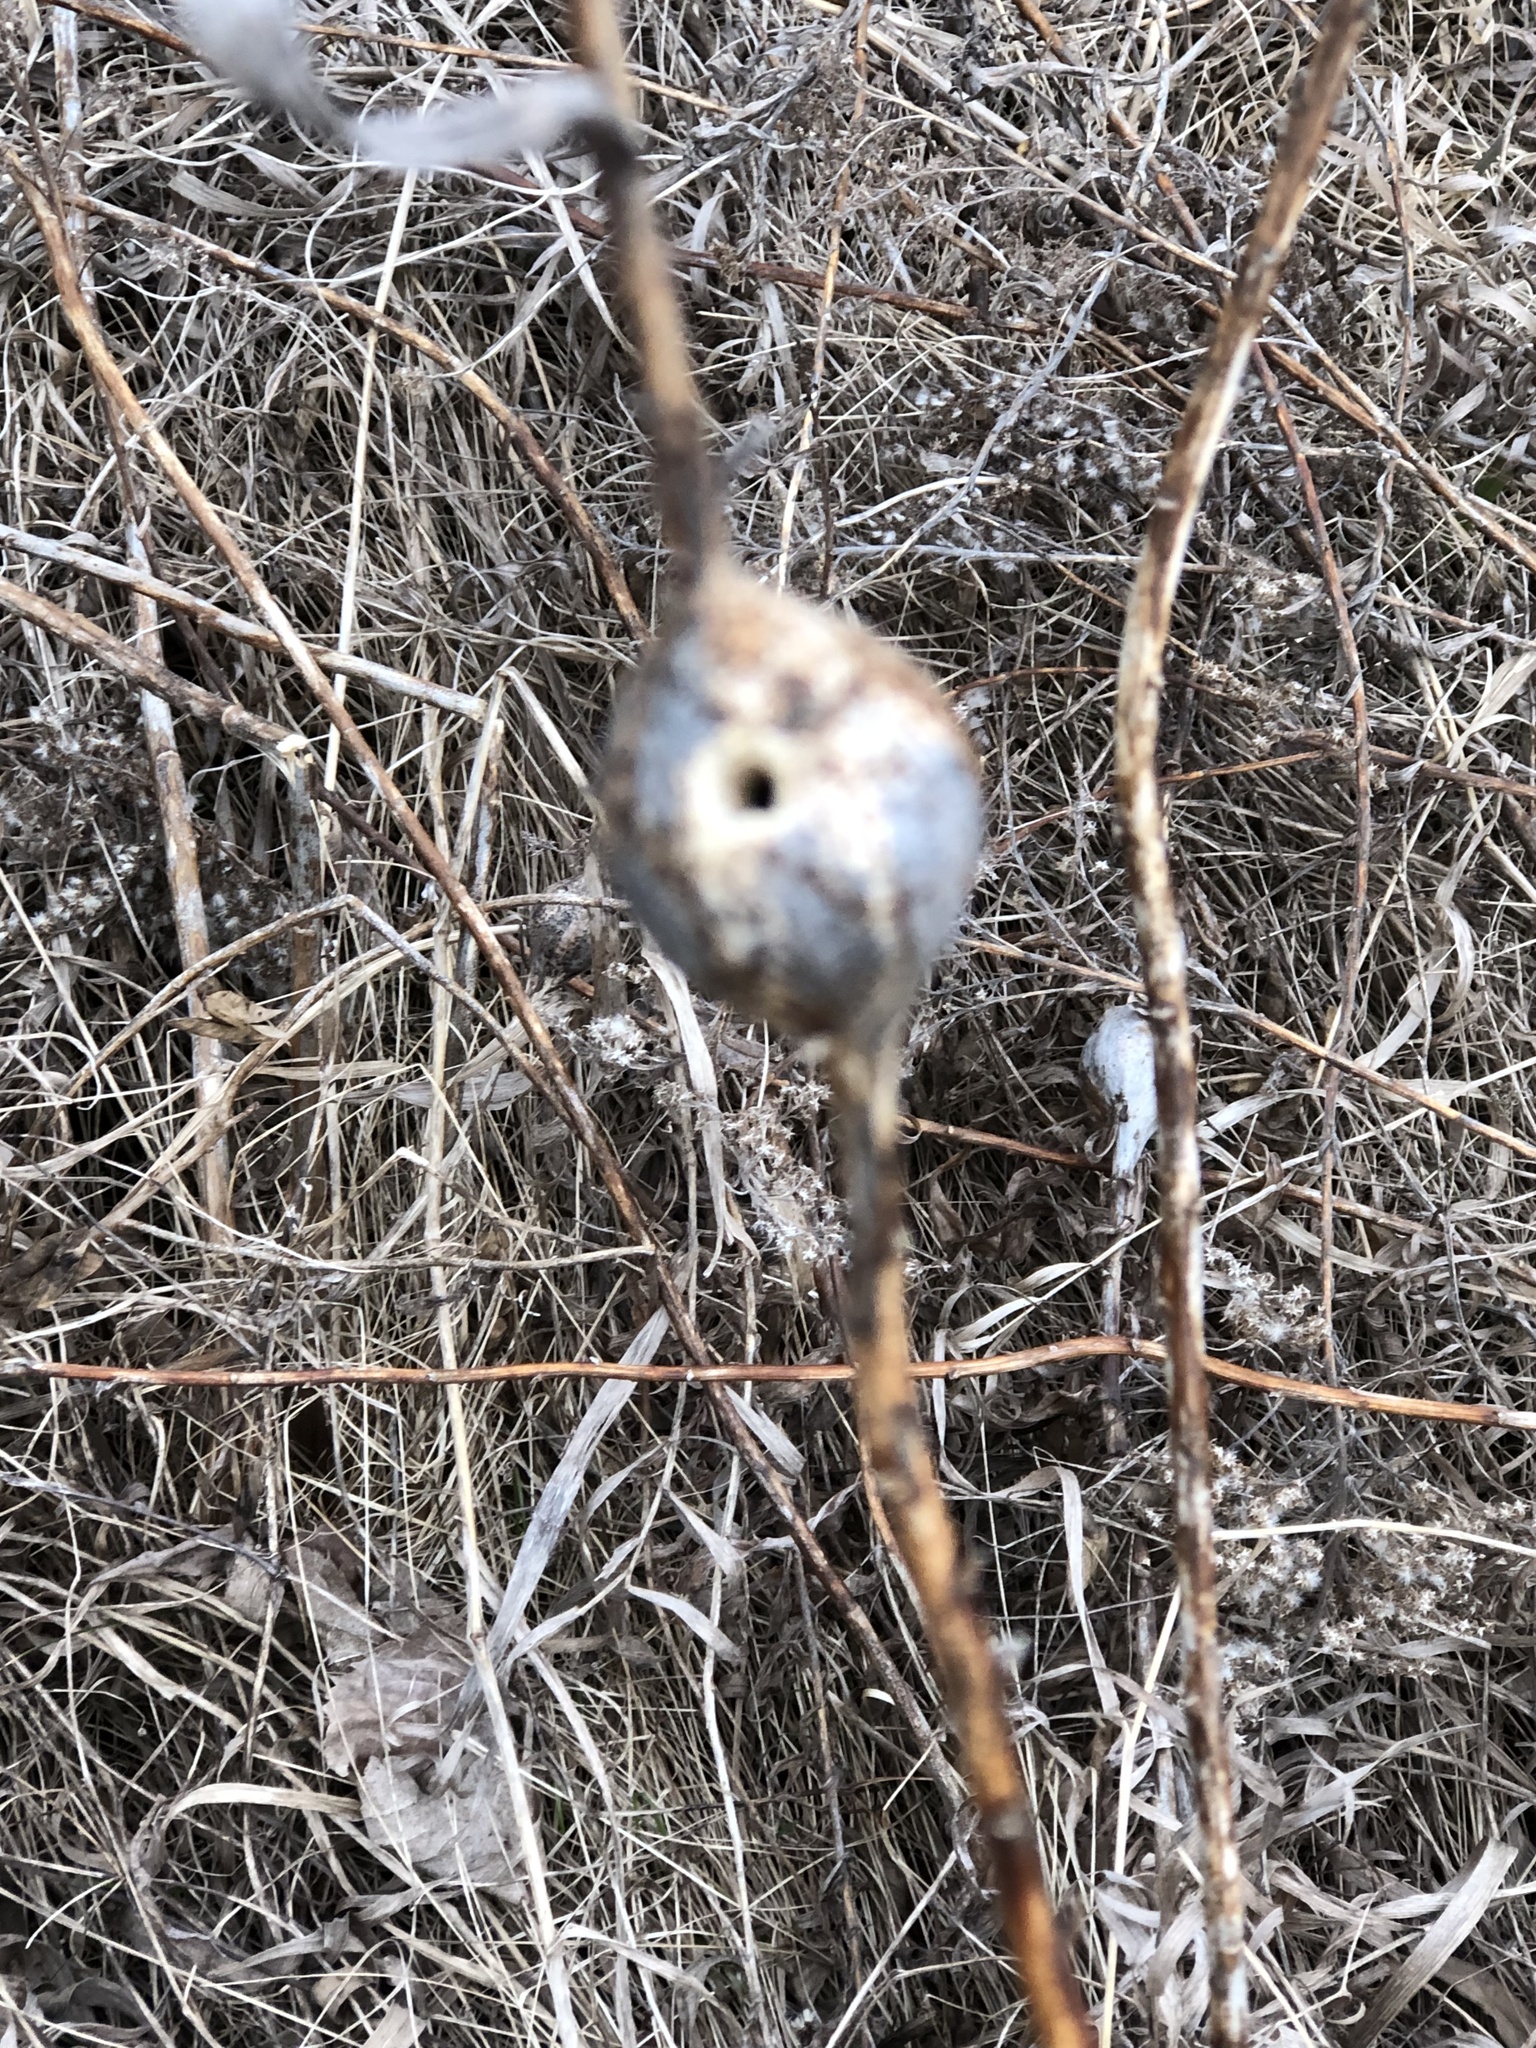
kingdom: Animalia
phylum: Arthropoda
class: Insecta
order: Diptera
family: Tephritidae
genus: Eurosta
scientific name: Eurosta solidaginis
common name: Goldenrod gall fly
